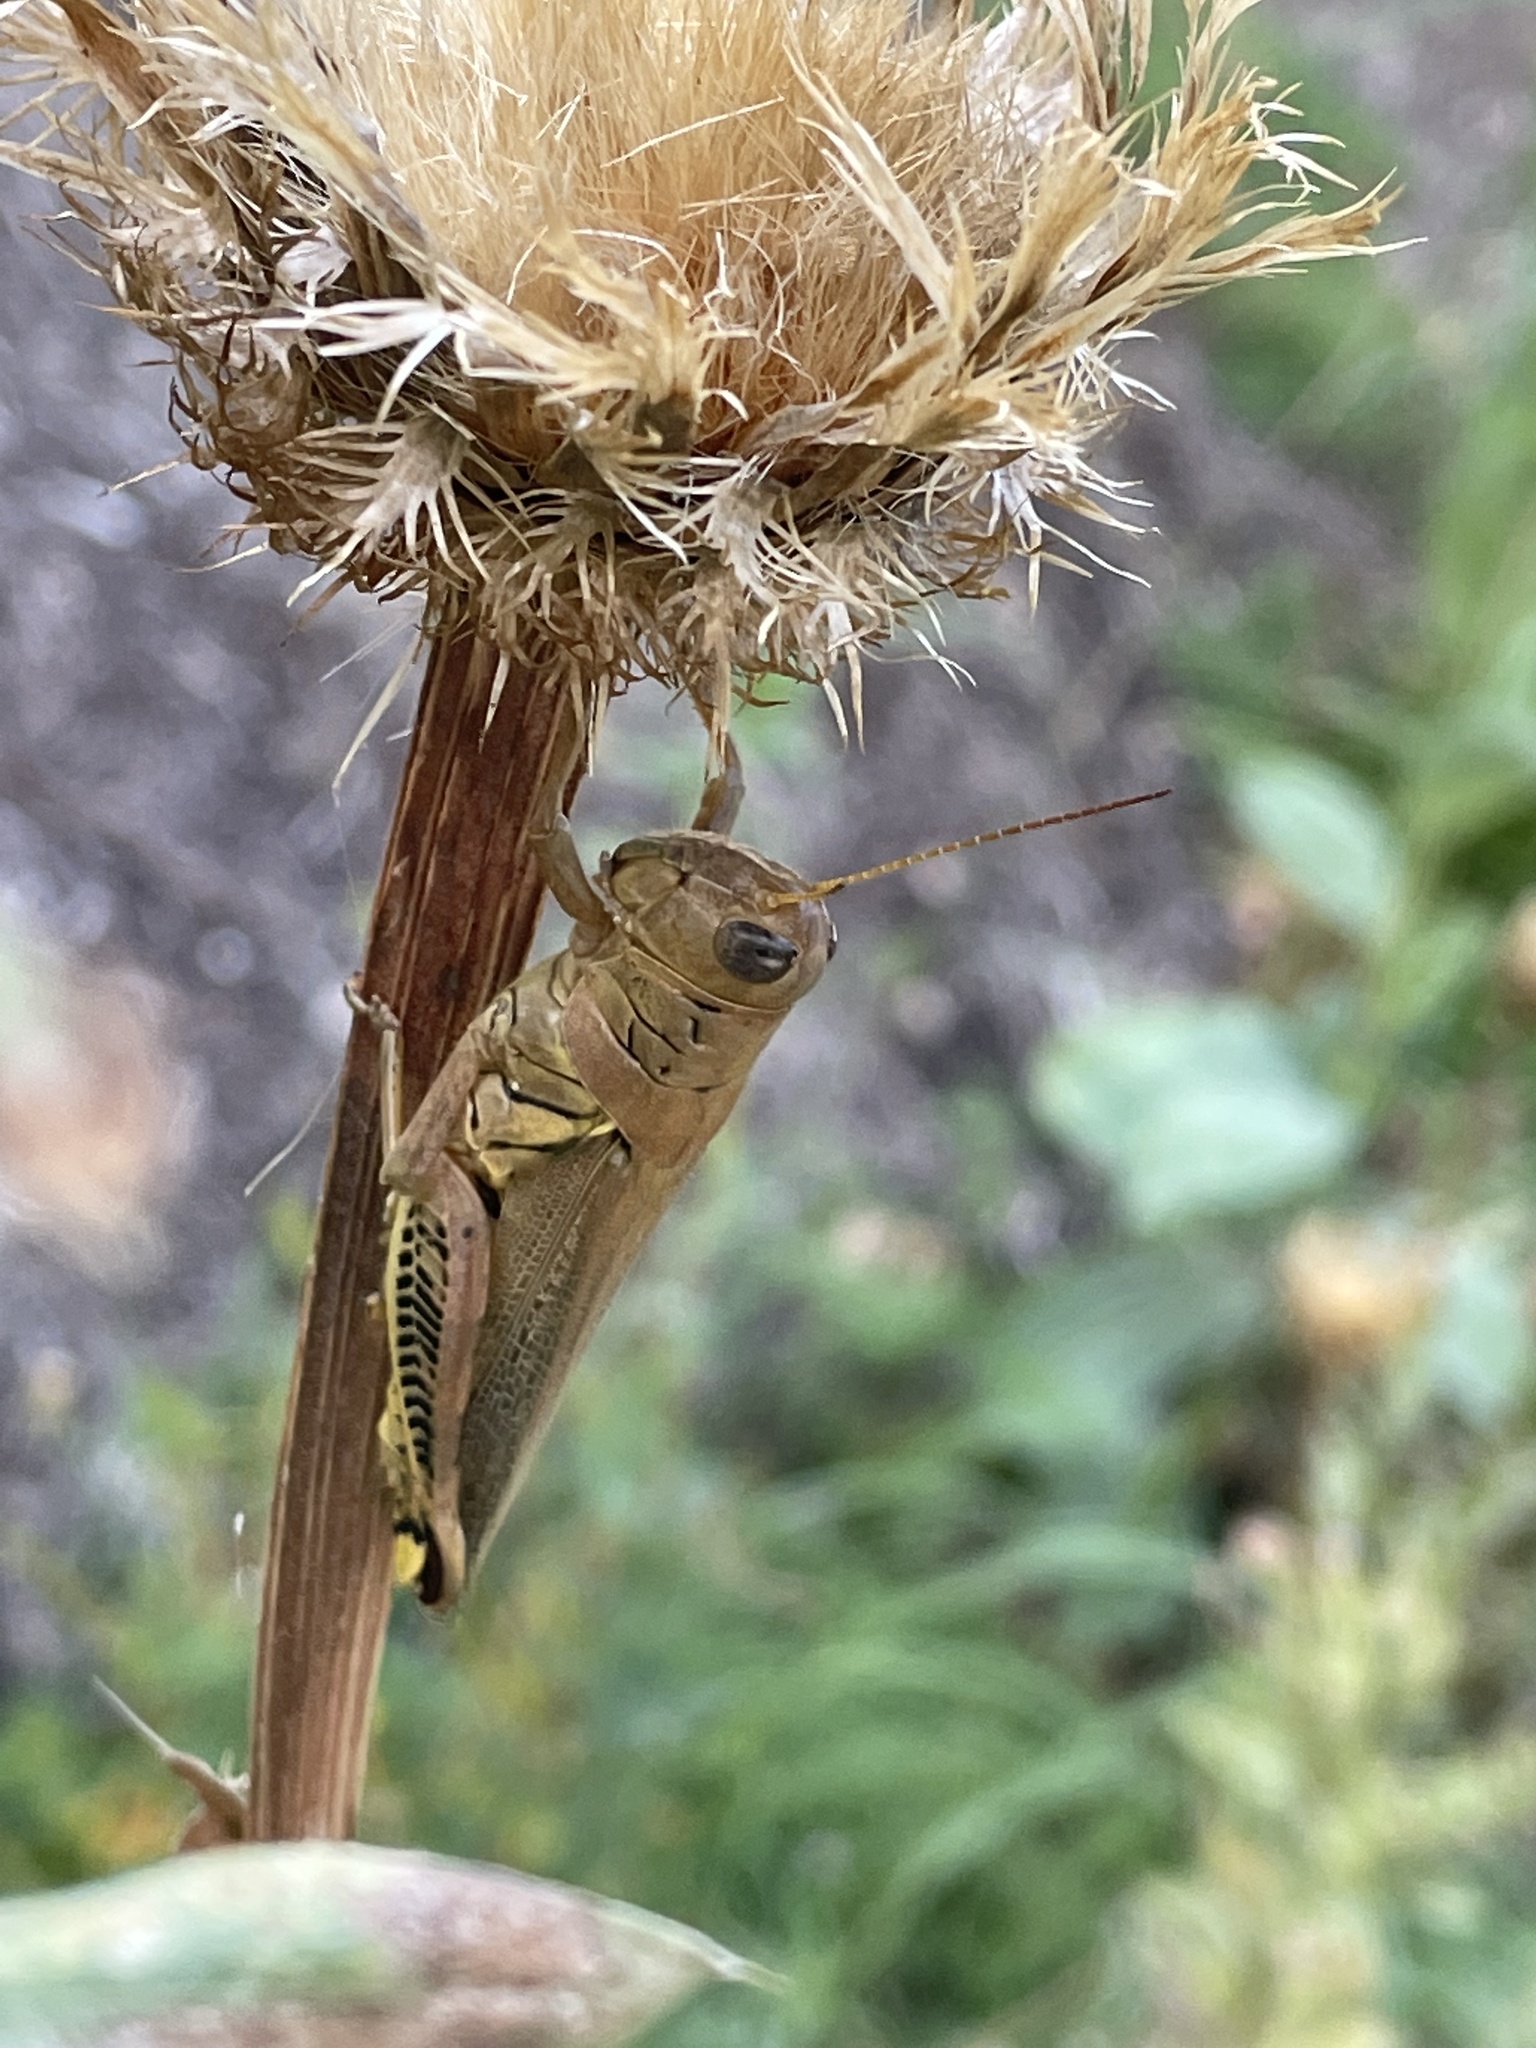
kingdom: Animalia
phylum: Arthropoda
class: Insecta
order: Orthoptera
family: Acrididae
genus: Melanoplus
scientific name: Melanoplus differentialis
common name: Differential grasshopper
